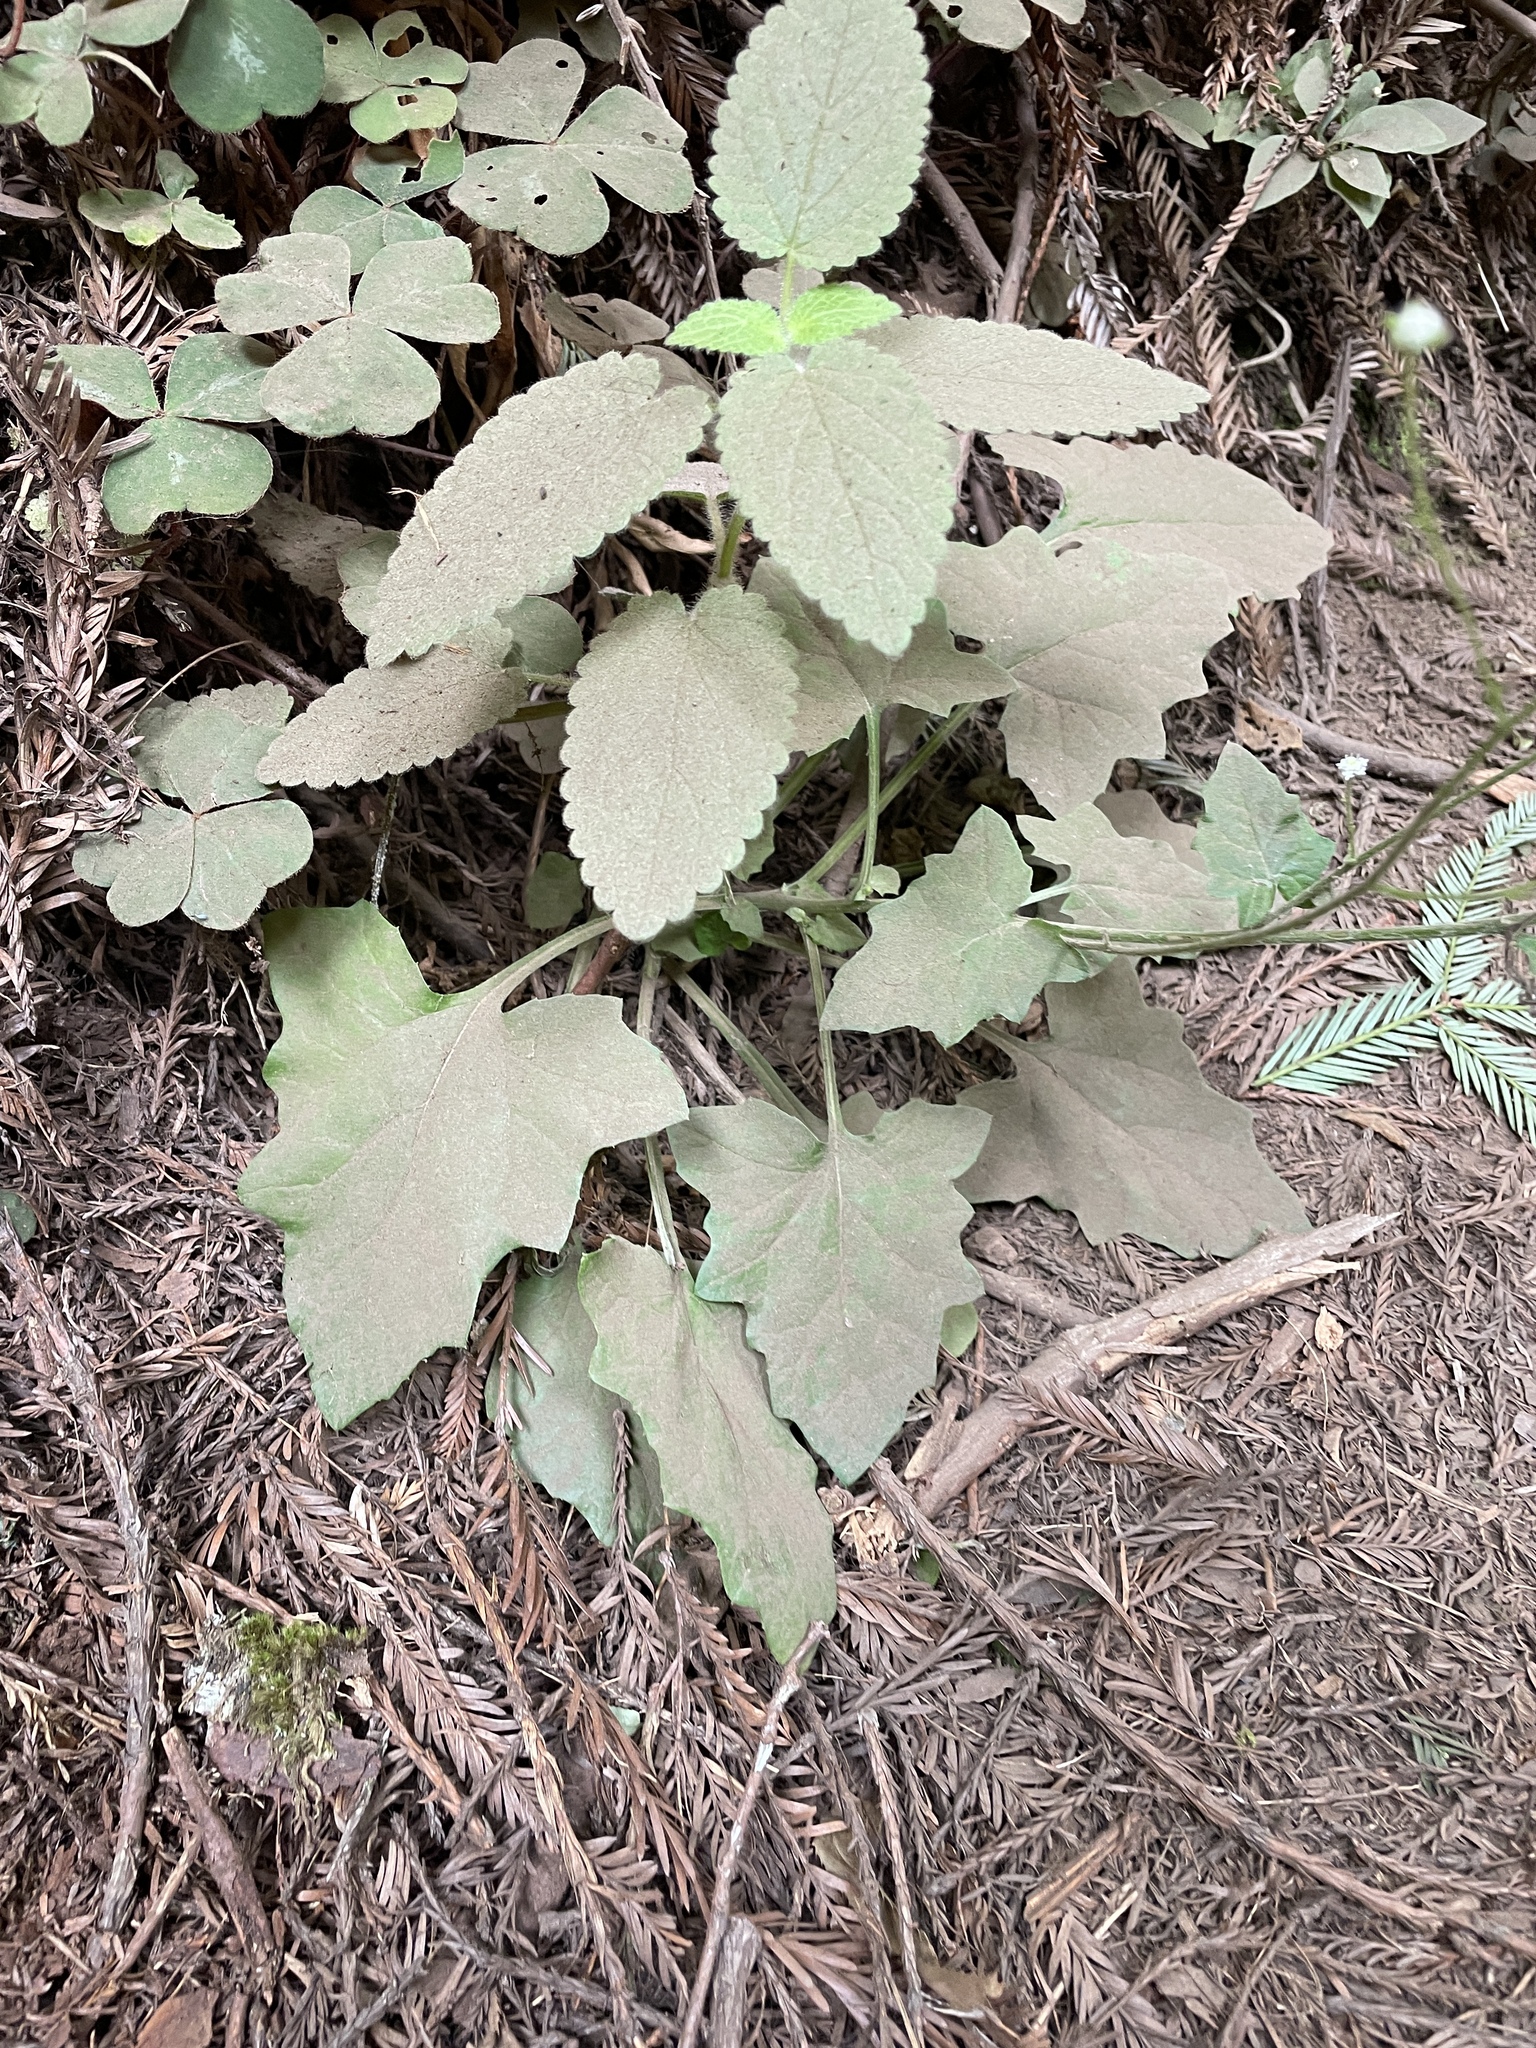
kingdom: Plantae
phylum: Tracheophyta
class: Magnoliopsida
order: Asterales
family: Asteraceae
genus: Adenocaulon
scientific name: Adenocaulon bicolor
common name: Trailplant
